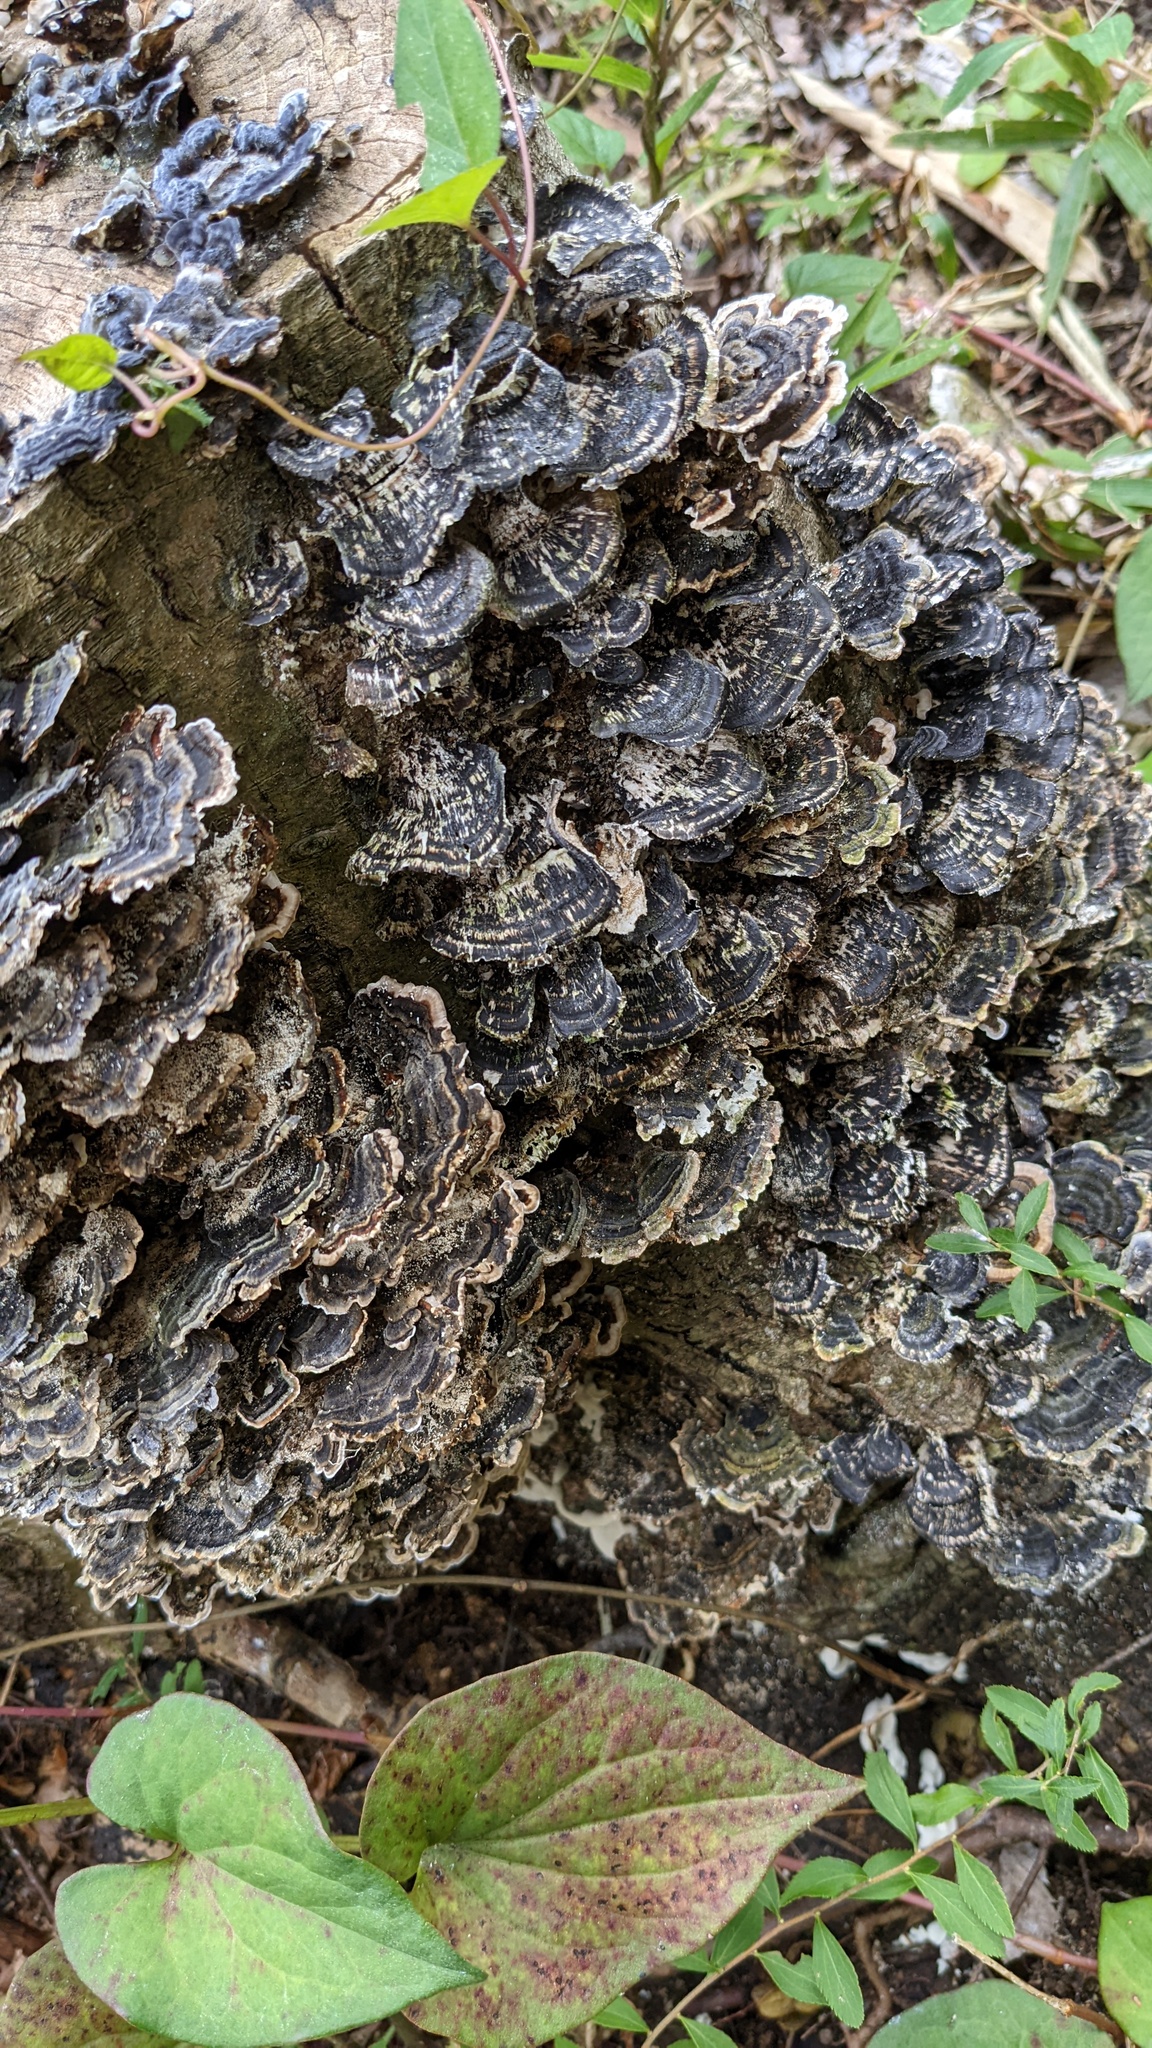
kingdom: Fungi
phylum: Basidiomycota
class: Agaricomycetes
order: Polyporales
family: Polyporaceae
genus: Trametes
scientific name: Trametes versicolor
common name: Turkeytail
